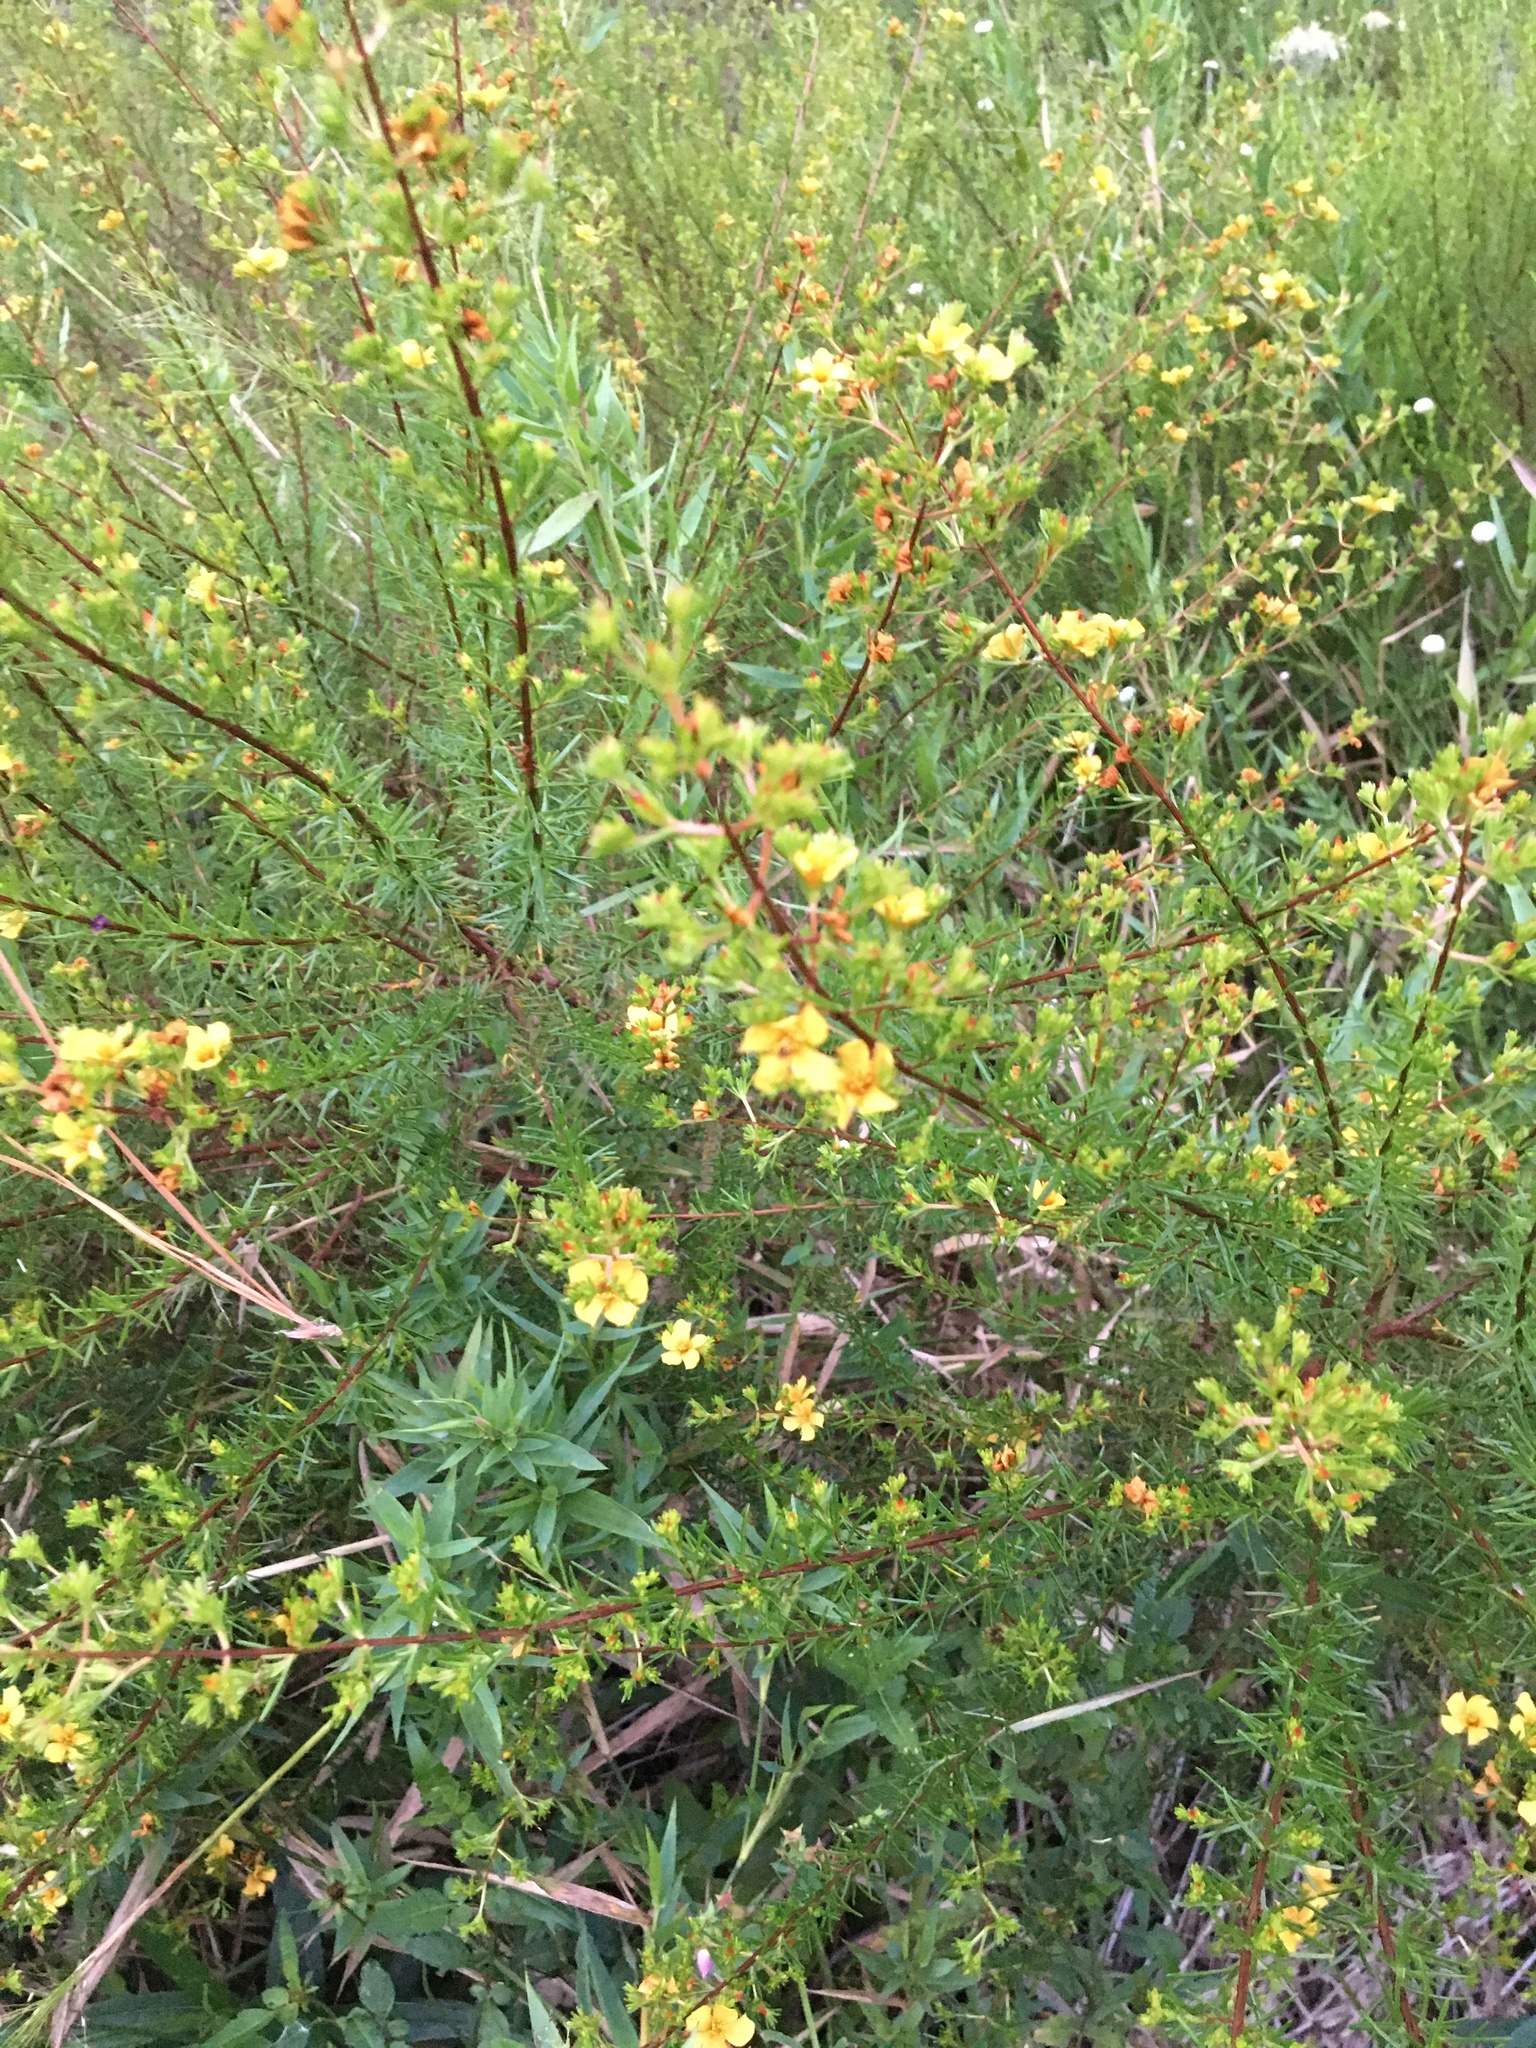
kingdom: Plantae
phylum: Tracheophyta
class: Magnoliopsida
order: Malpighiales
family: Hypericaceae
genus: Hypericum
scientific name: Hypericum brachyphyllum
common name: Coastal plain st. john's-wort
